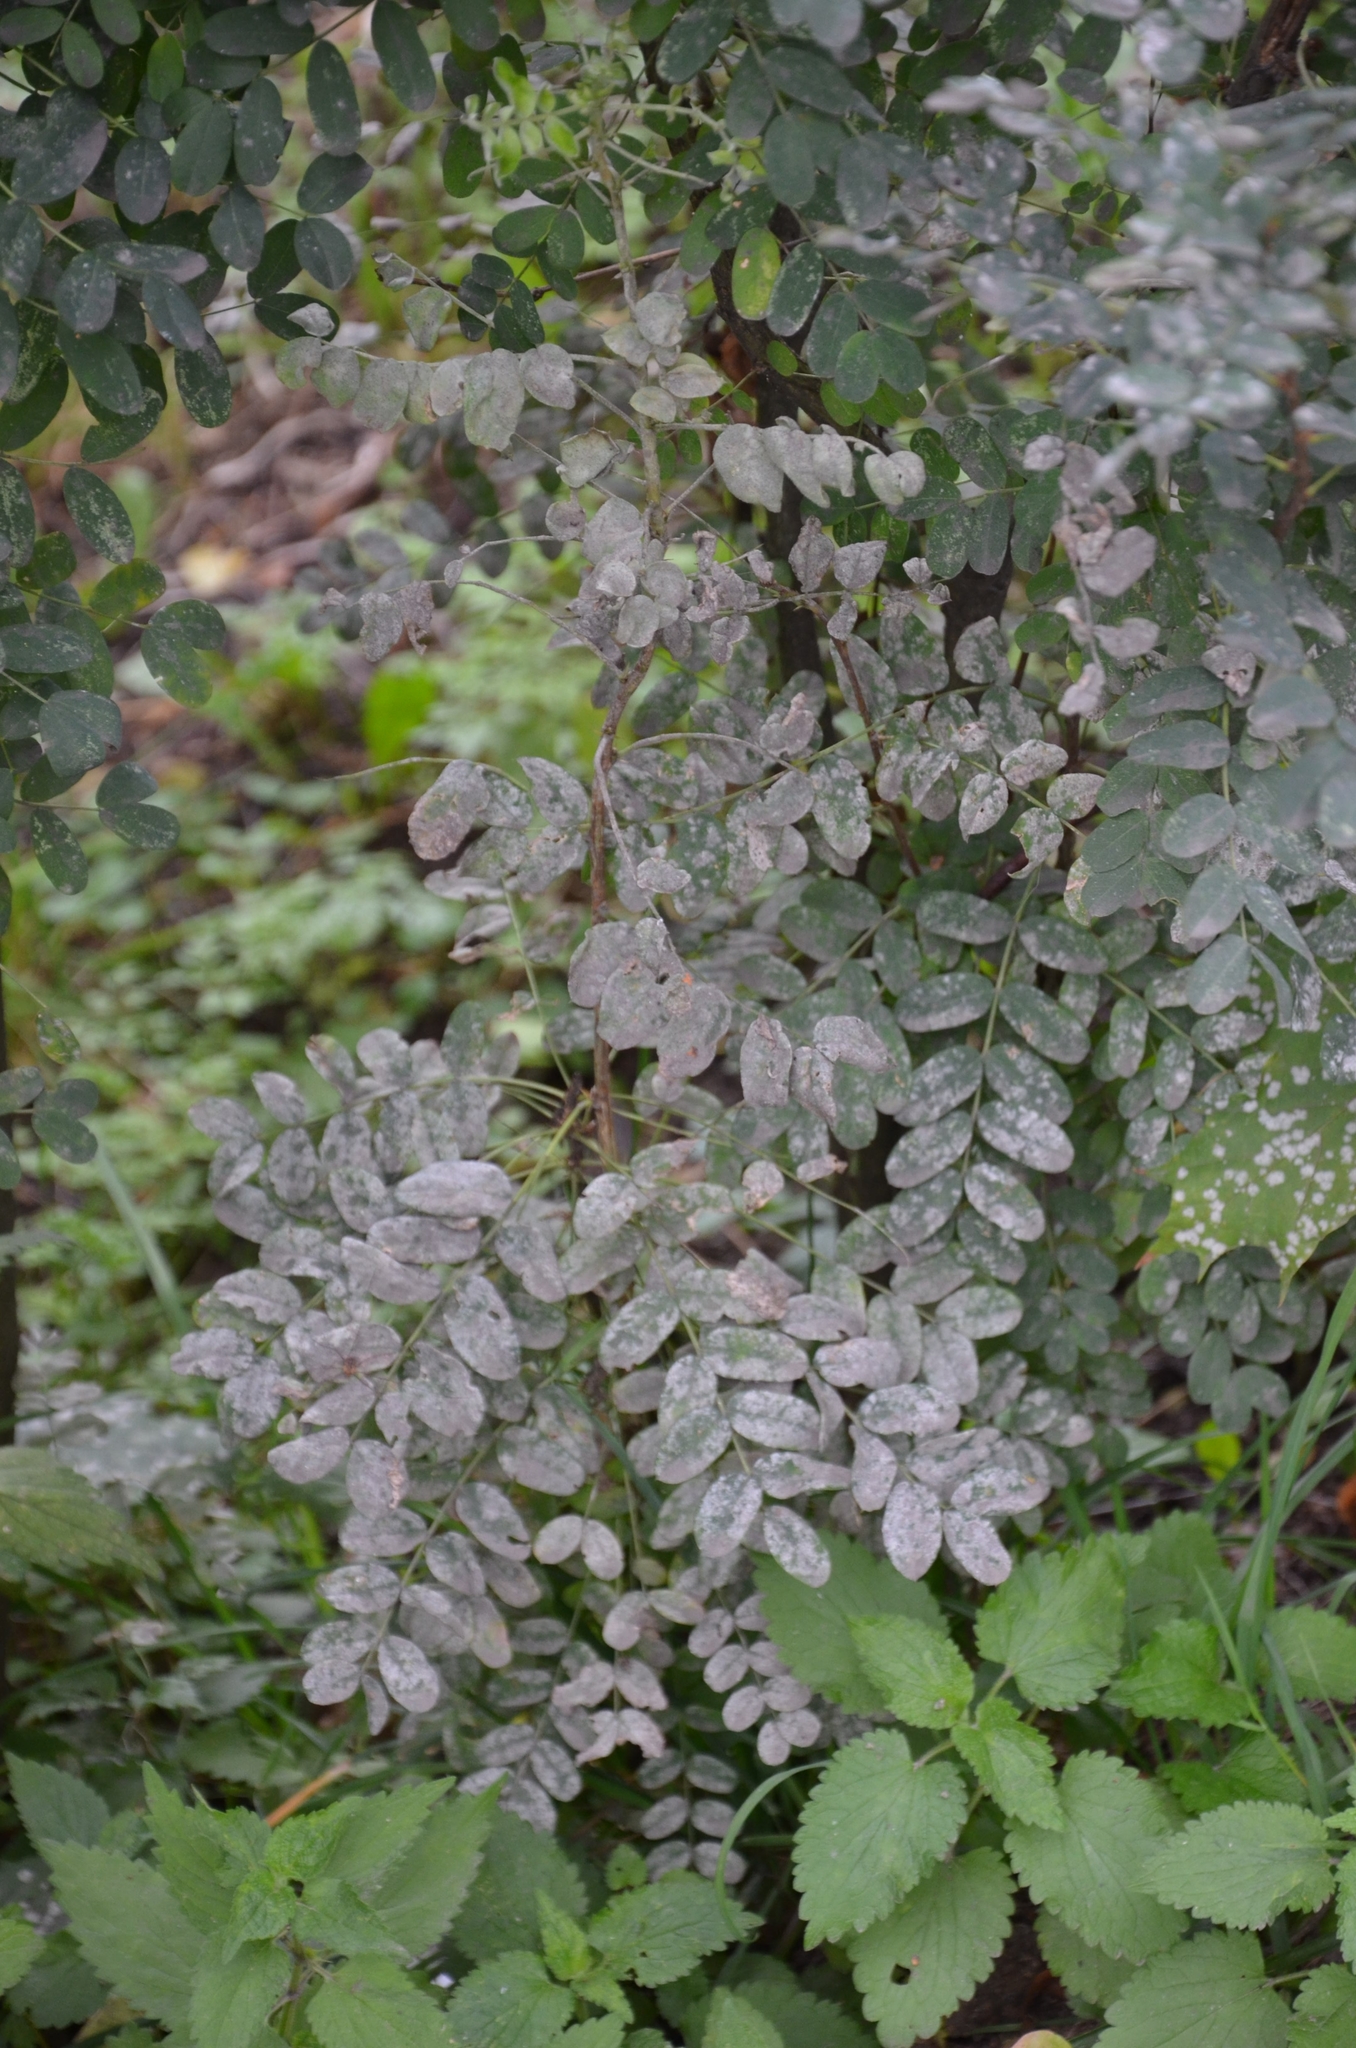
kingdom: Fungi
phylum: Ascomycota
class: Leotiomycetes
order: Helotiales
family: Erysiphaceae
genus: Erysiphe
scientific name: Erysiphe palczewskii
